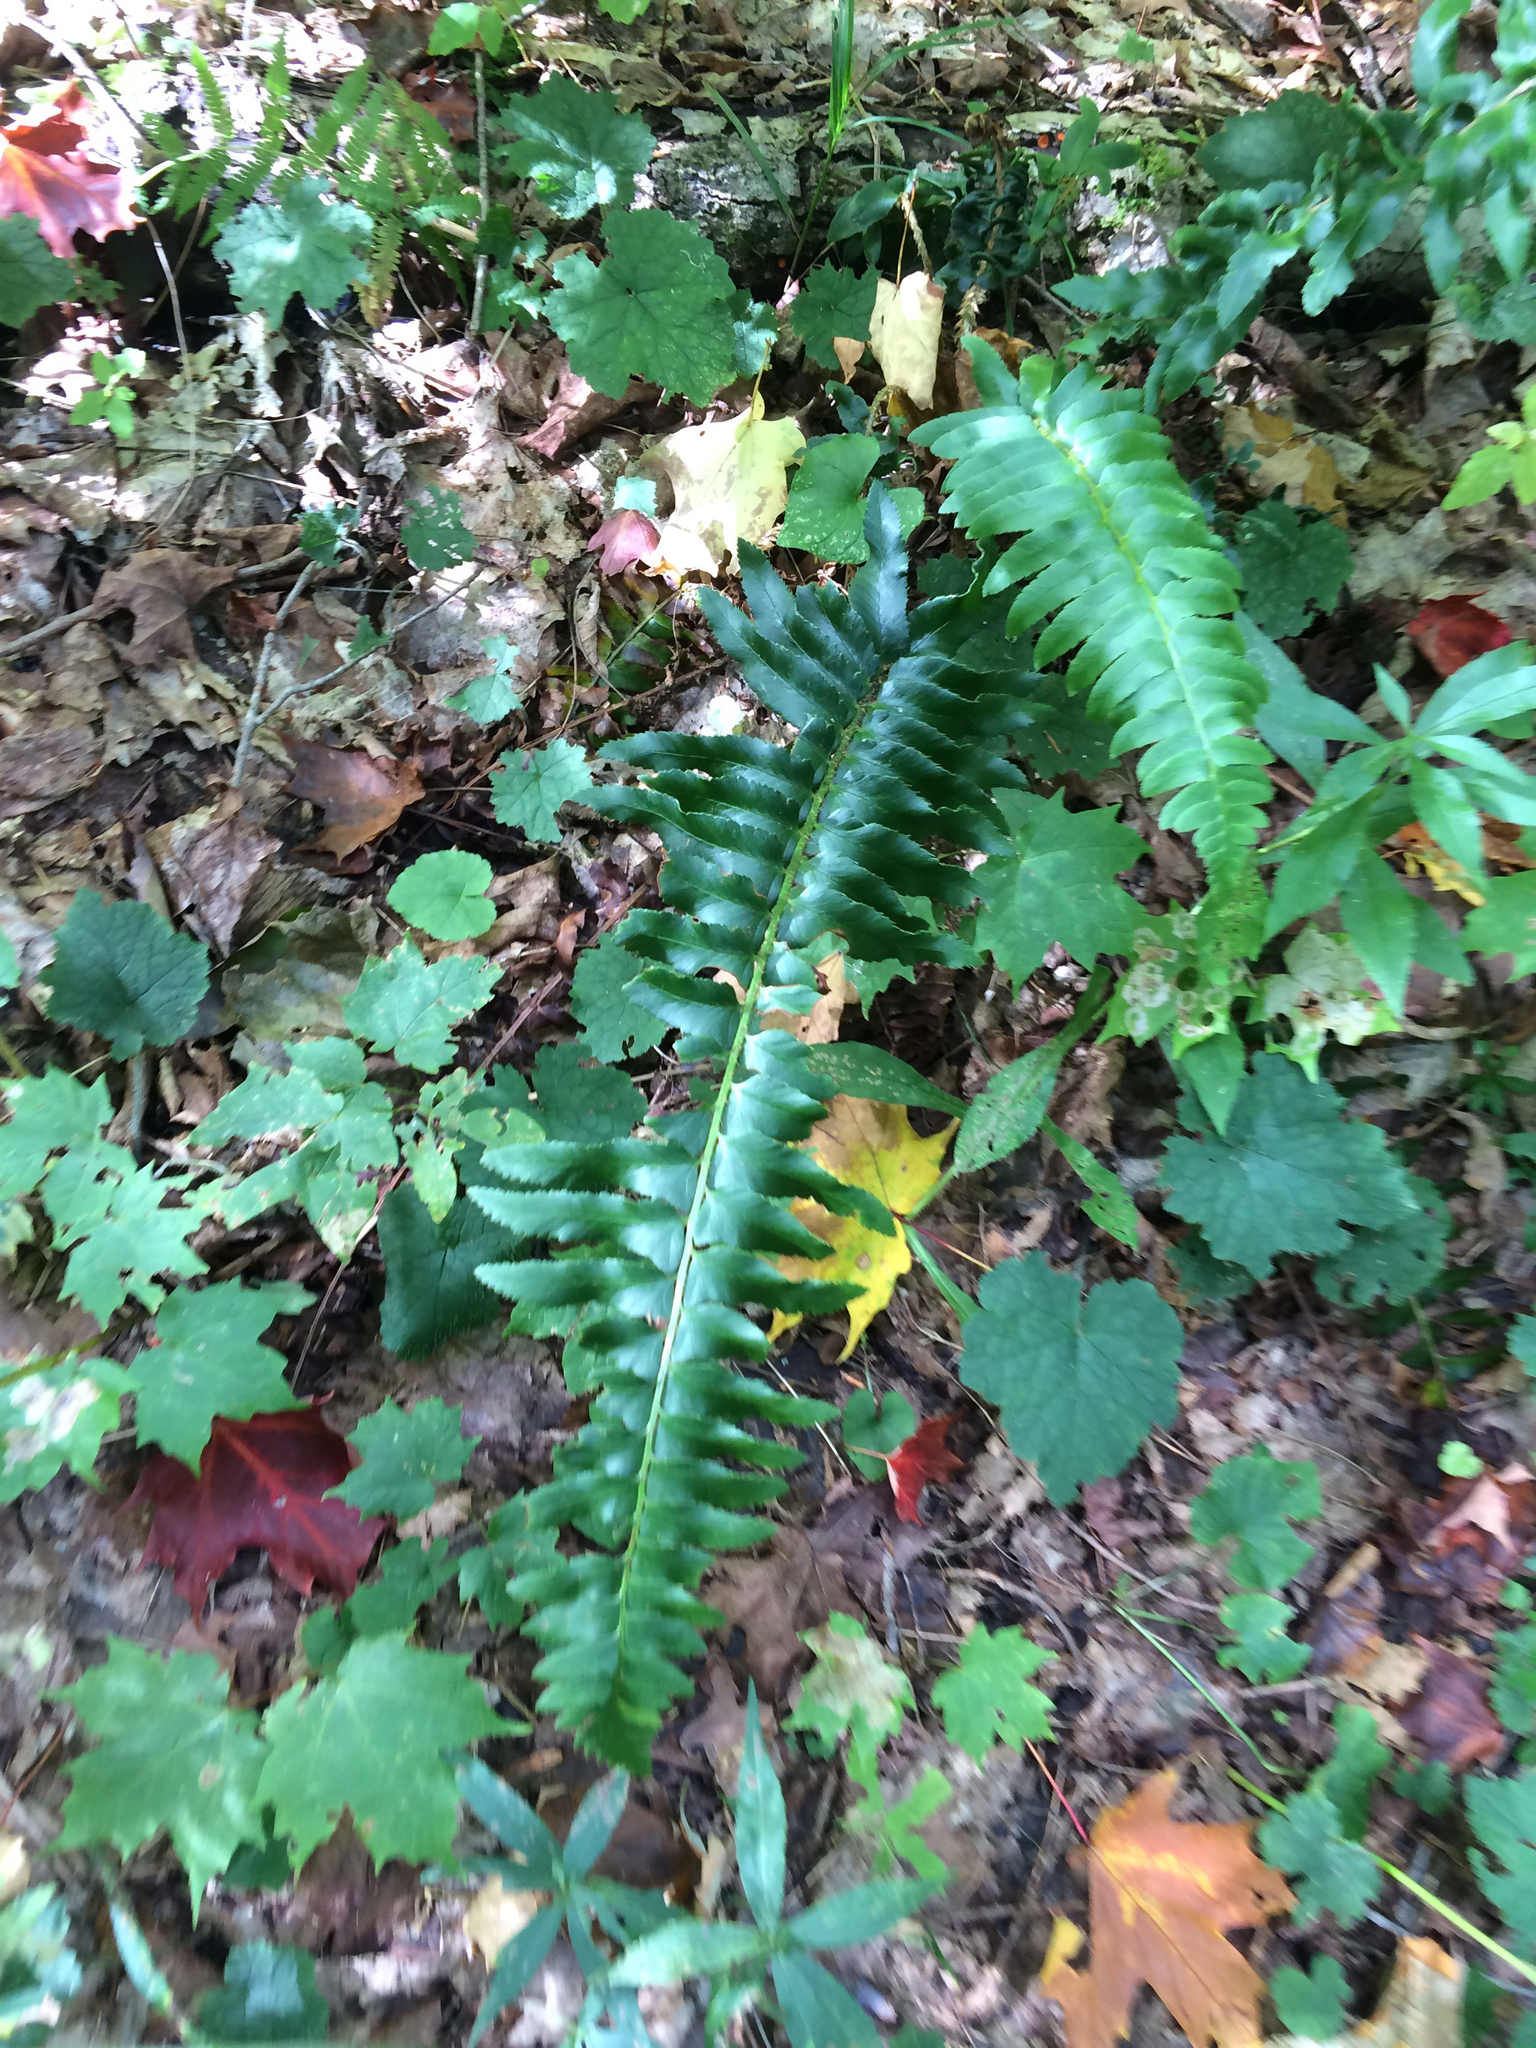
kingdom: Plantae
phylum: Tracheophyta
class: Polypodiopsida
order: Polypodiales
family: Dryopteridaceae
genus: Polystichum
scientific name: Polystichum acrostichoides
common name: Christmas fern
